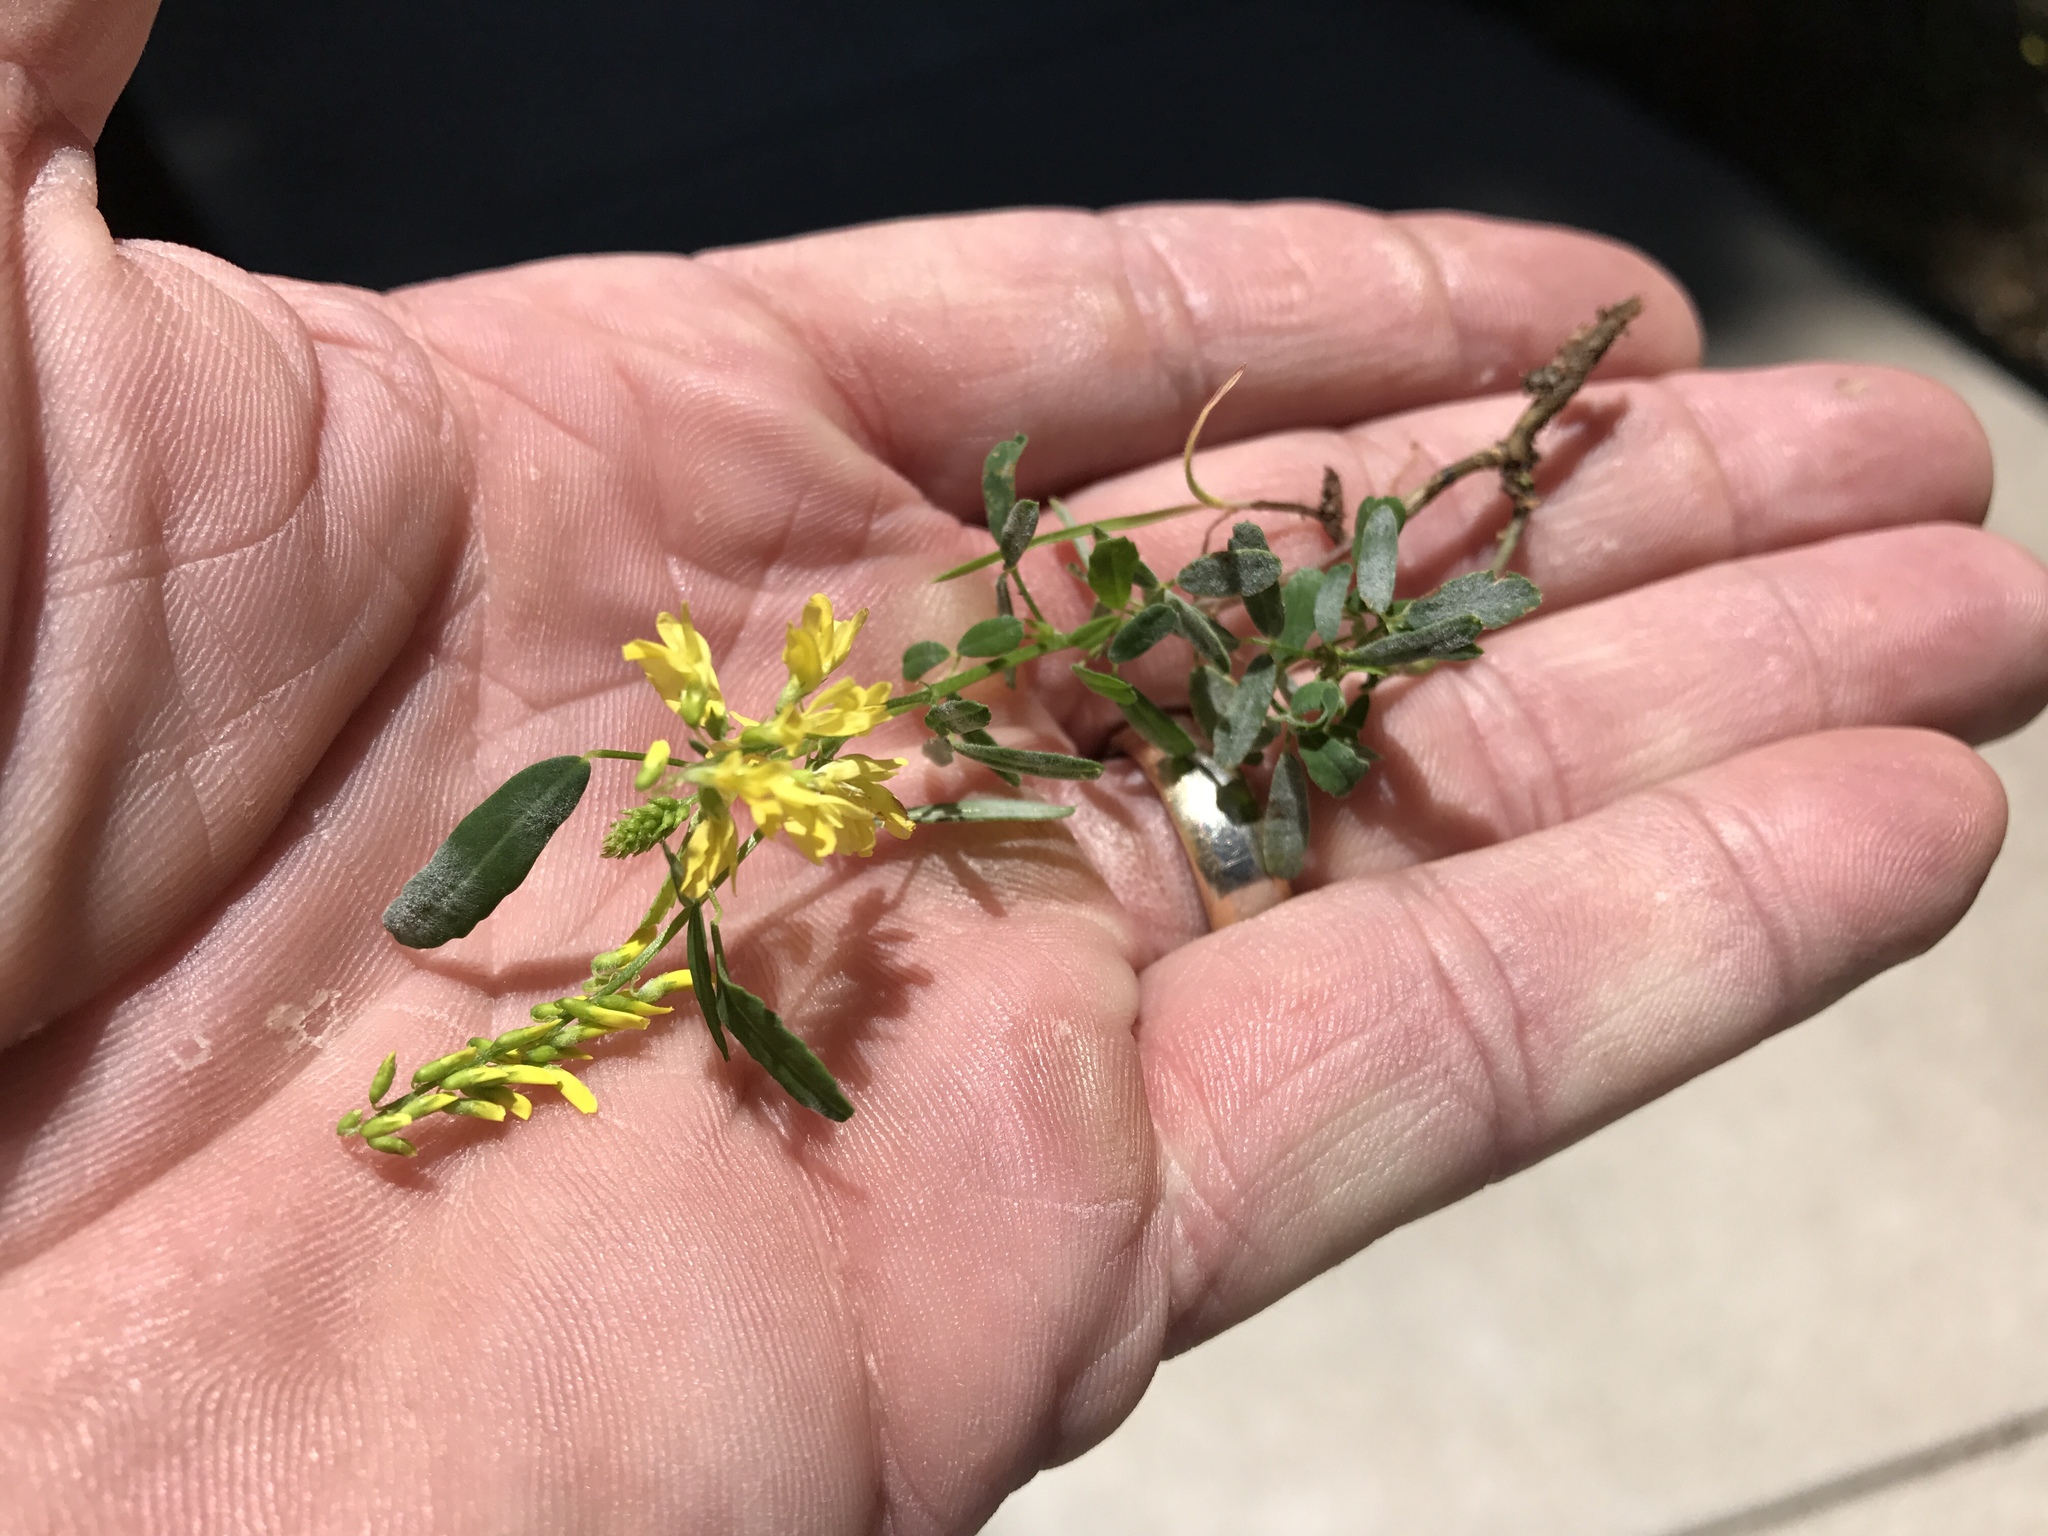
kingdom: Plantae
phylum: Tracheophyta
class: Magnoliopsida
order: Fabales
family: Fabaceae
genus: Melilotus
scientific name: Melilotus officinalis
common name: Sweetclover
